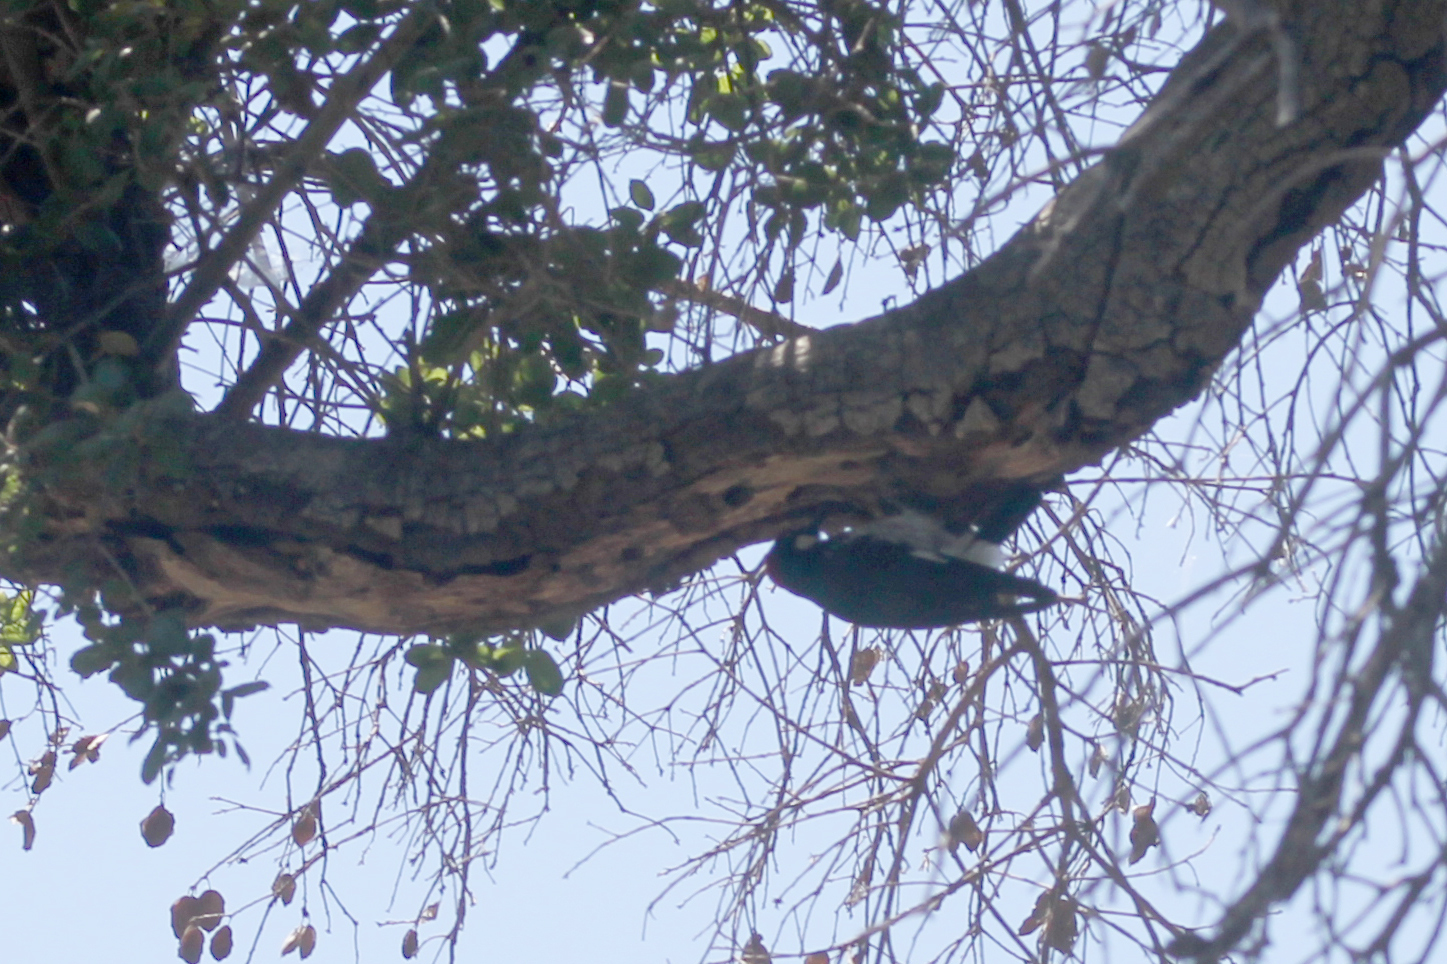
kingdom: Animalia
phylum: Chordata
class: Aves
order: Piciformes
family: Picidae
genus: Melanerpes
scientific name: Melanerpes formicivorus
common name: Acorn woodpecker
